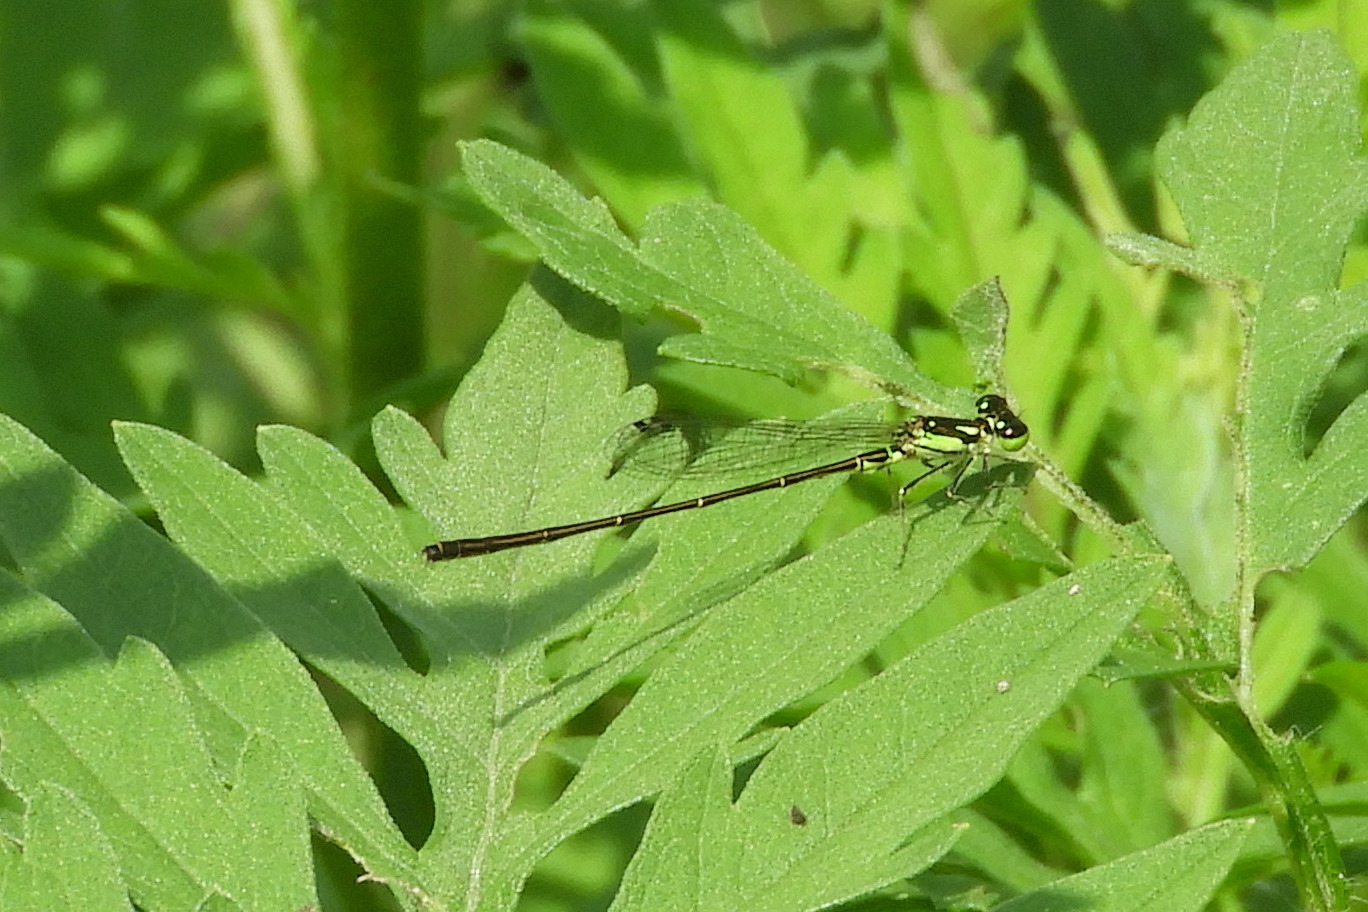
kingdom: Animalia
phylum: Arthropoda
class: Insecta
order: Odonata
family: Coenagrionidae
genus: Ischnura
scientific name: Ischnura posita
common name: Fragile forktail
